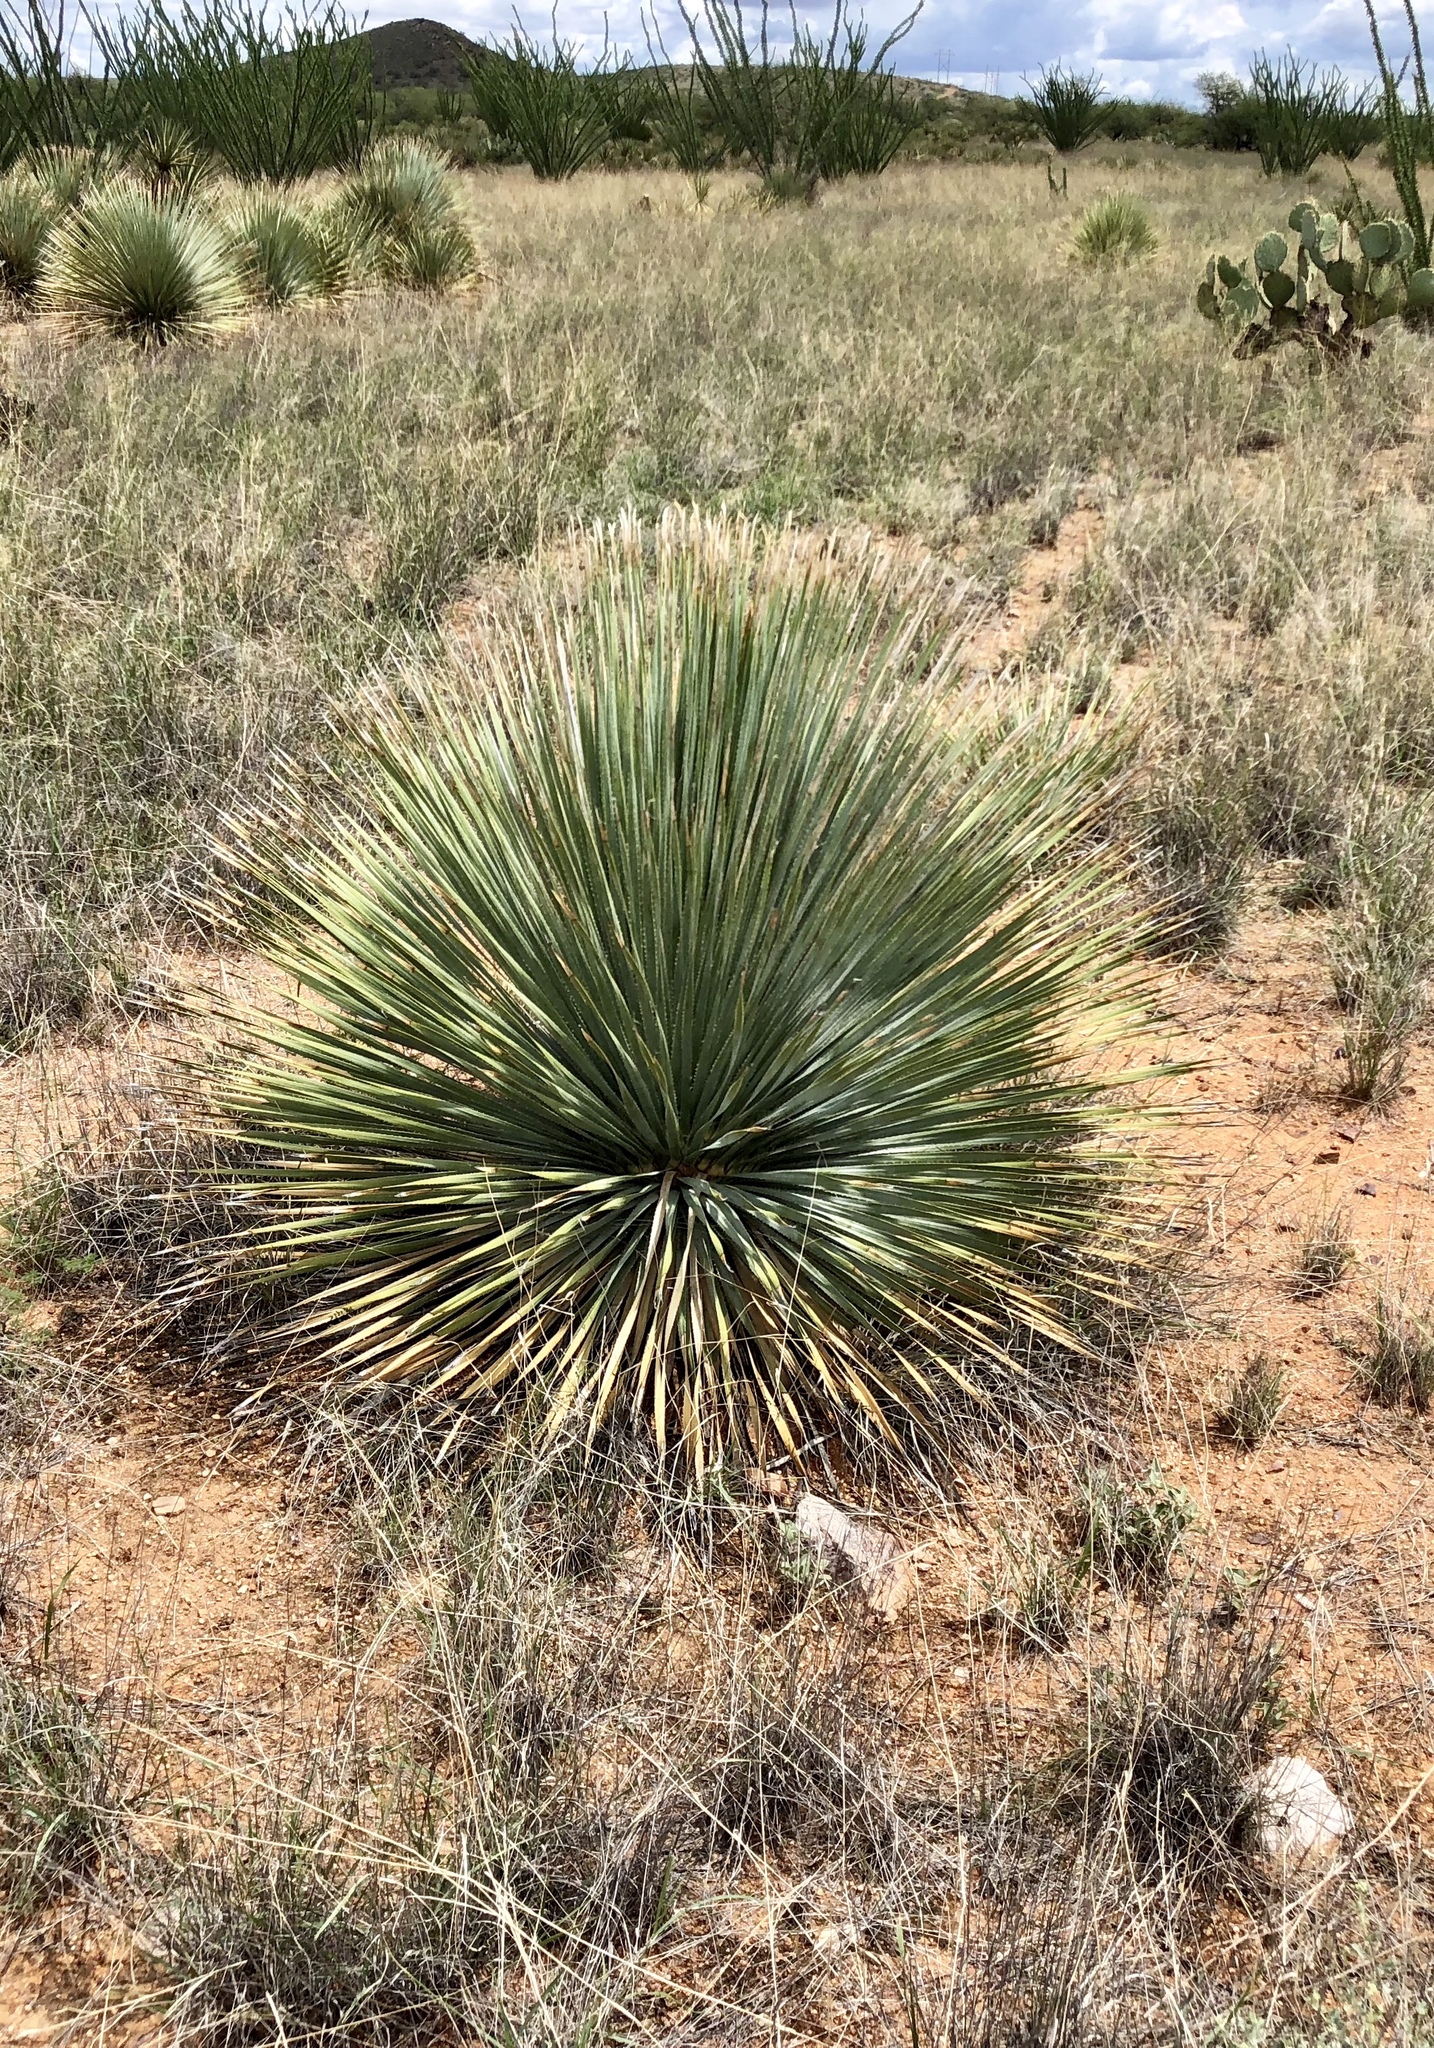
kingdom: Plantae
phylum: Tracheophyta
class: Liliopsida
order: Asparagales
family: Asparagaceae
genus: Dasylirion
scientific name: Dasylirion wheeleri
